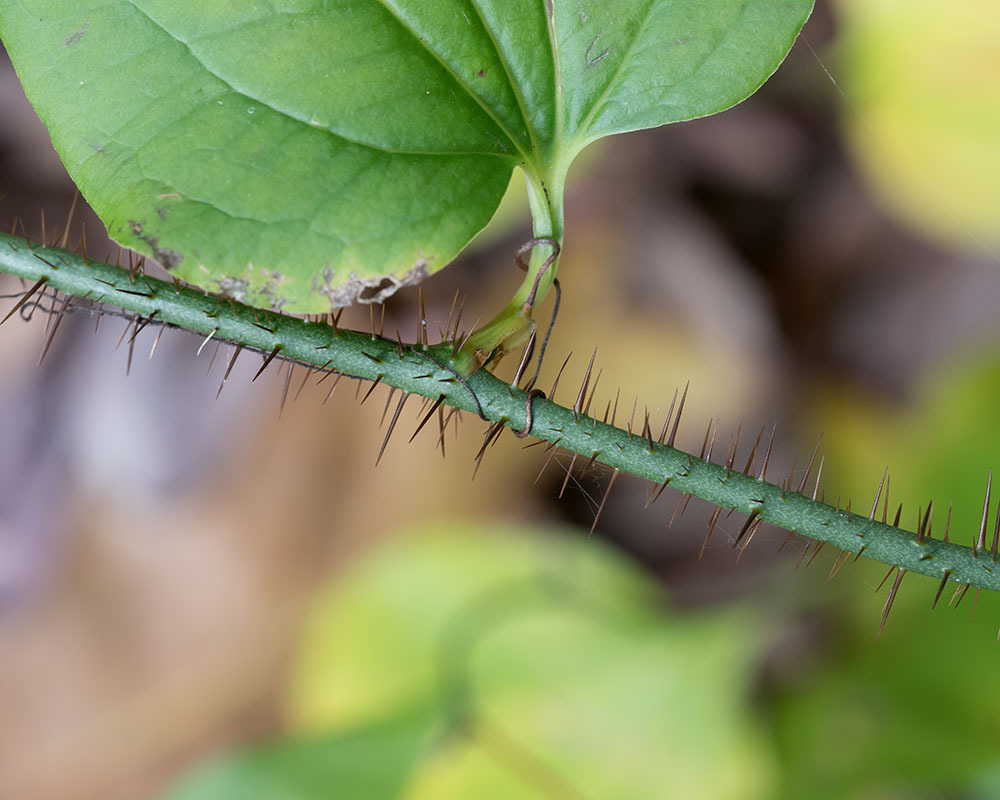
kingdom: Plantae
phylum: Tracheophyta
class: Liliopsida
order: Liliales
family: Smilacaceae
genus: Smilax
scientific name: Smilax tamnoides
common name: Hellfetter
